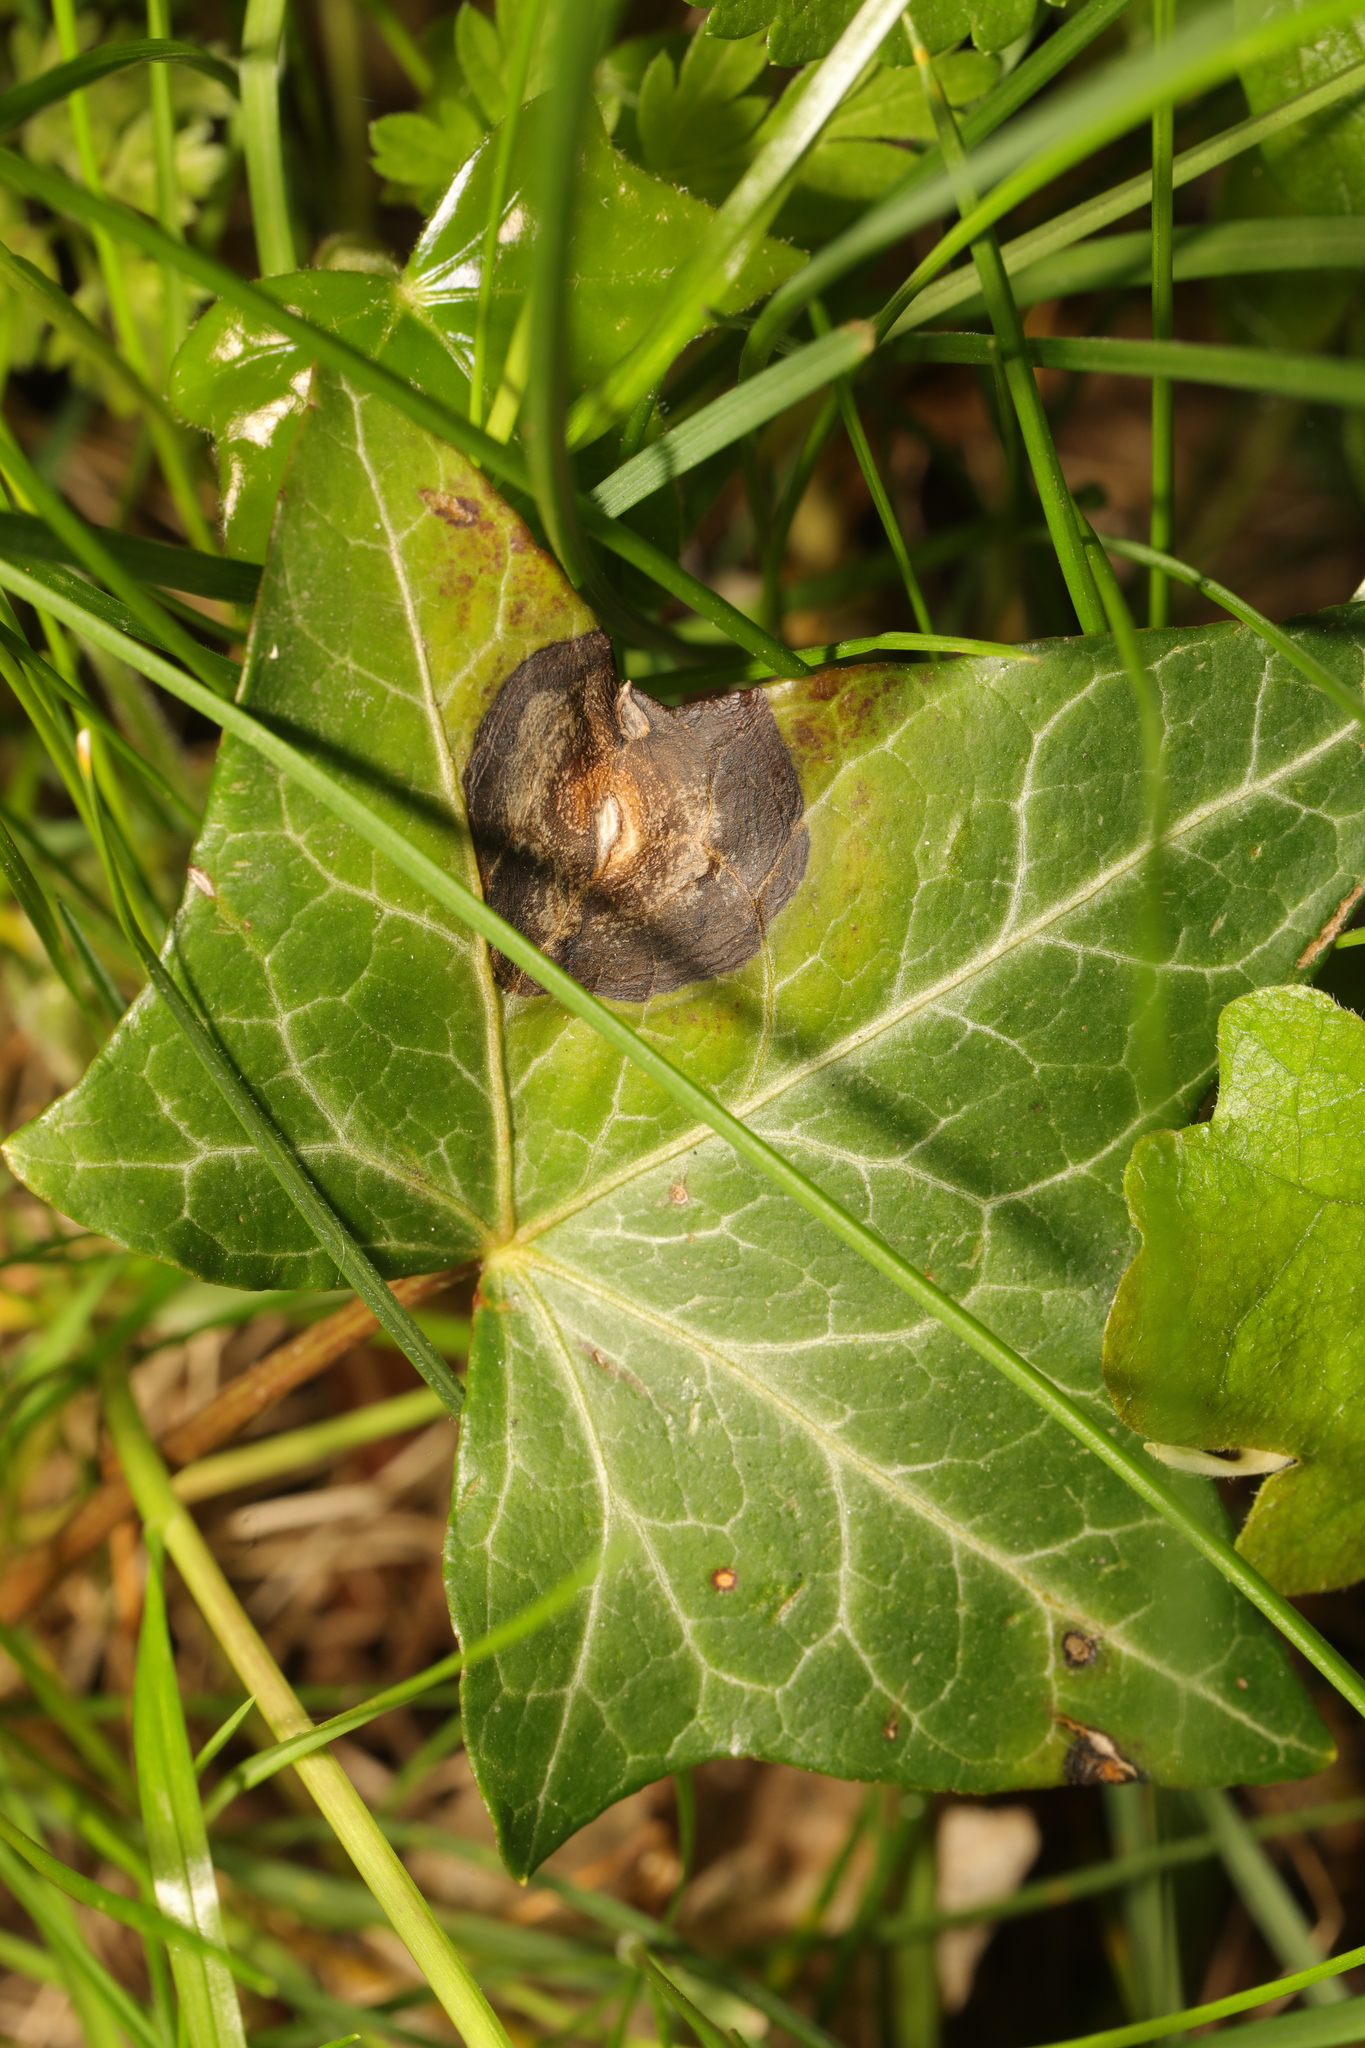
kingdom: Fungi
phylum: Ascomycota
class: Dothideomycetes
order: Pleosporales
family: Didymellaceae
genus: Boeremia
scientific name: Boeremia hedericola
